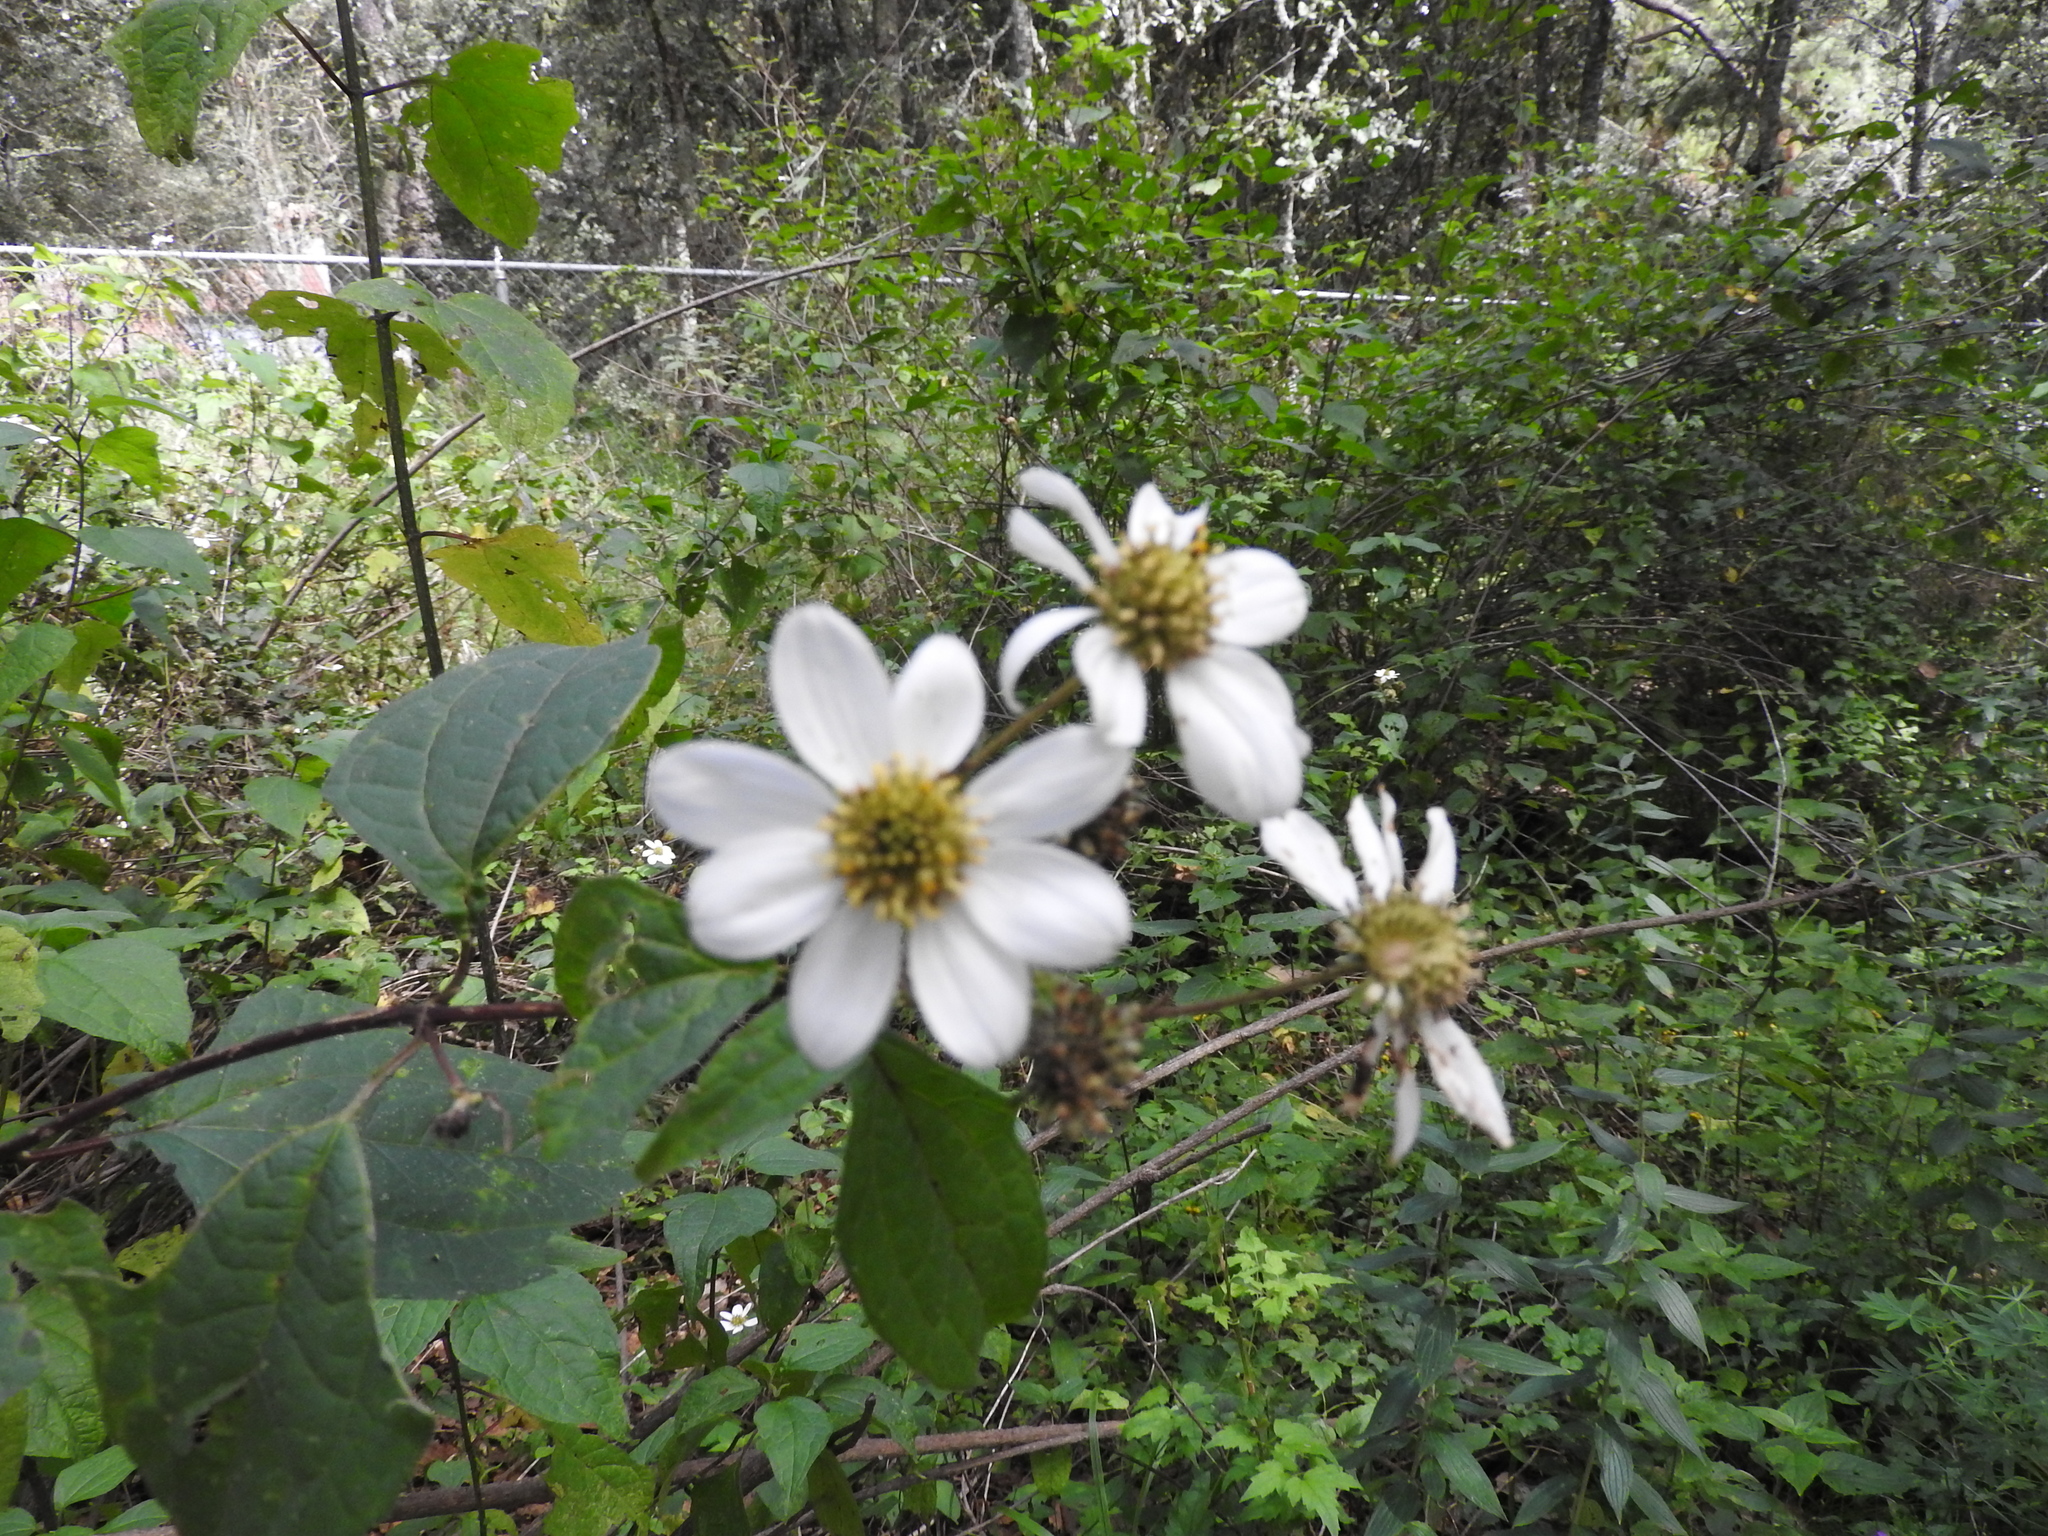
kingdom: Plantae
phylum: Tracheophyta
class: Magnoliopsida
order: Asterales
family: Asteraceae
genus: Montanoa
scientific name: Montanoa frutescens
